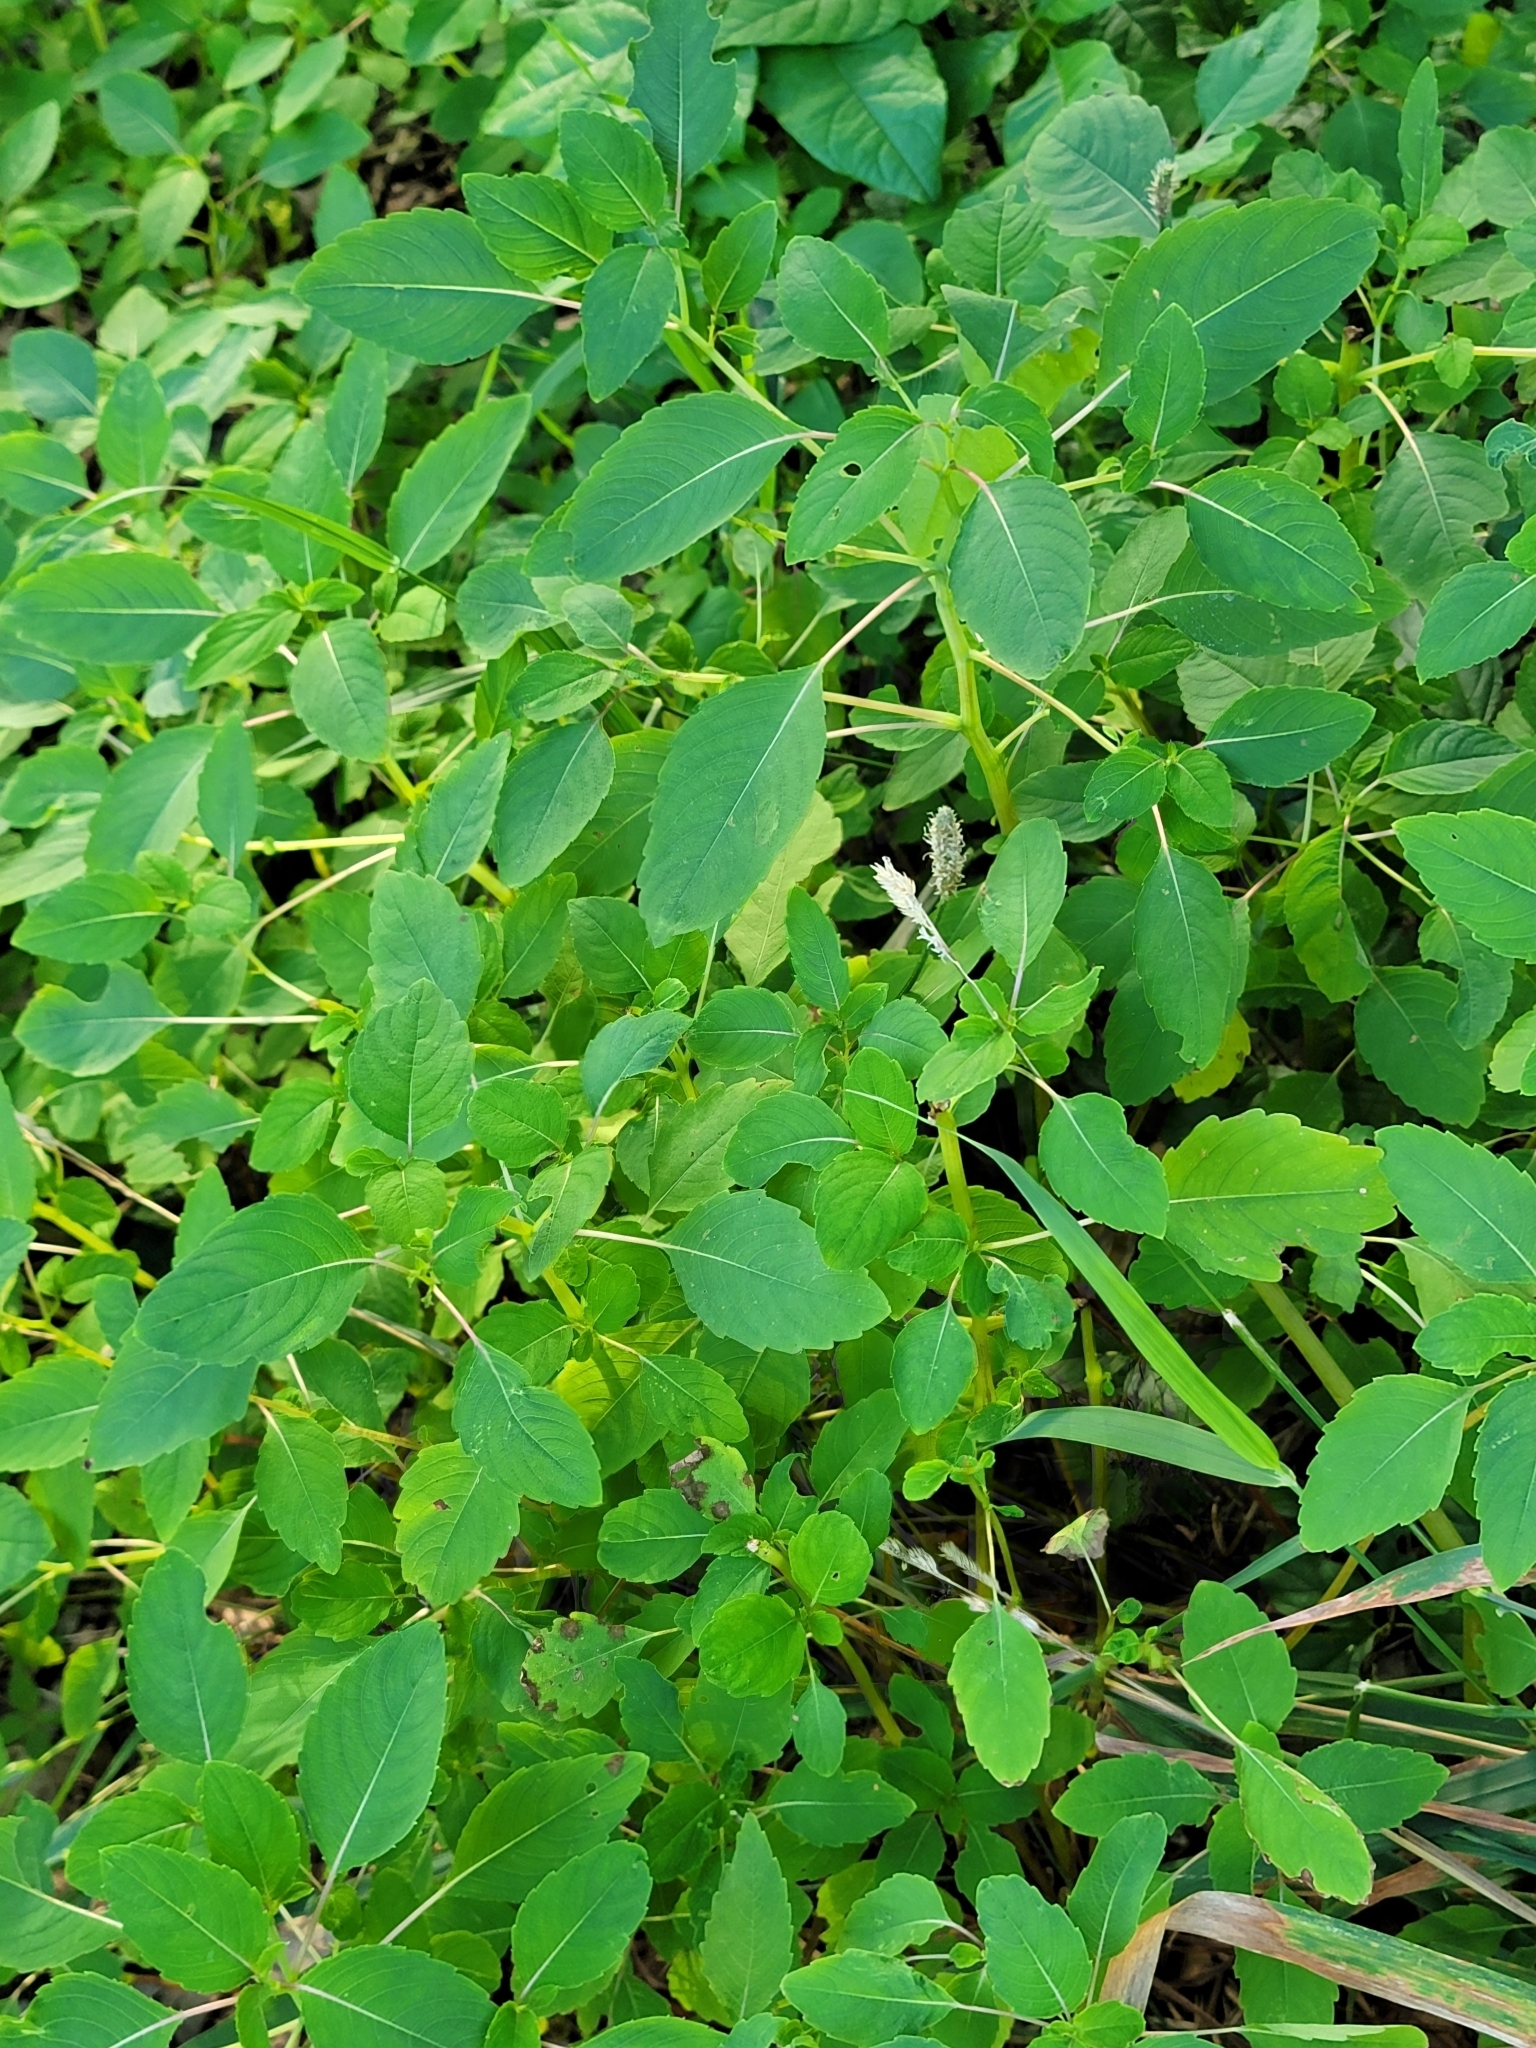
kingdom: Plantae
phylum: Tracheophyta
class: Magnoliopsida
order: Ericales
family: Balsaminaceae
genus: Impatiens
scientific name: Impatiens capensis
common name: Orange balsam
